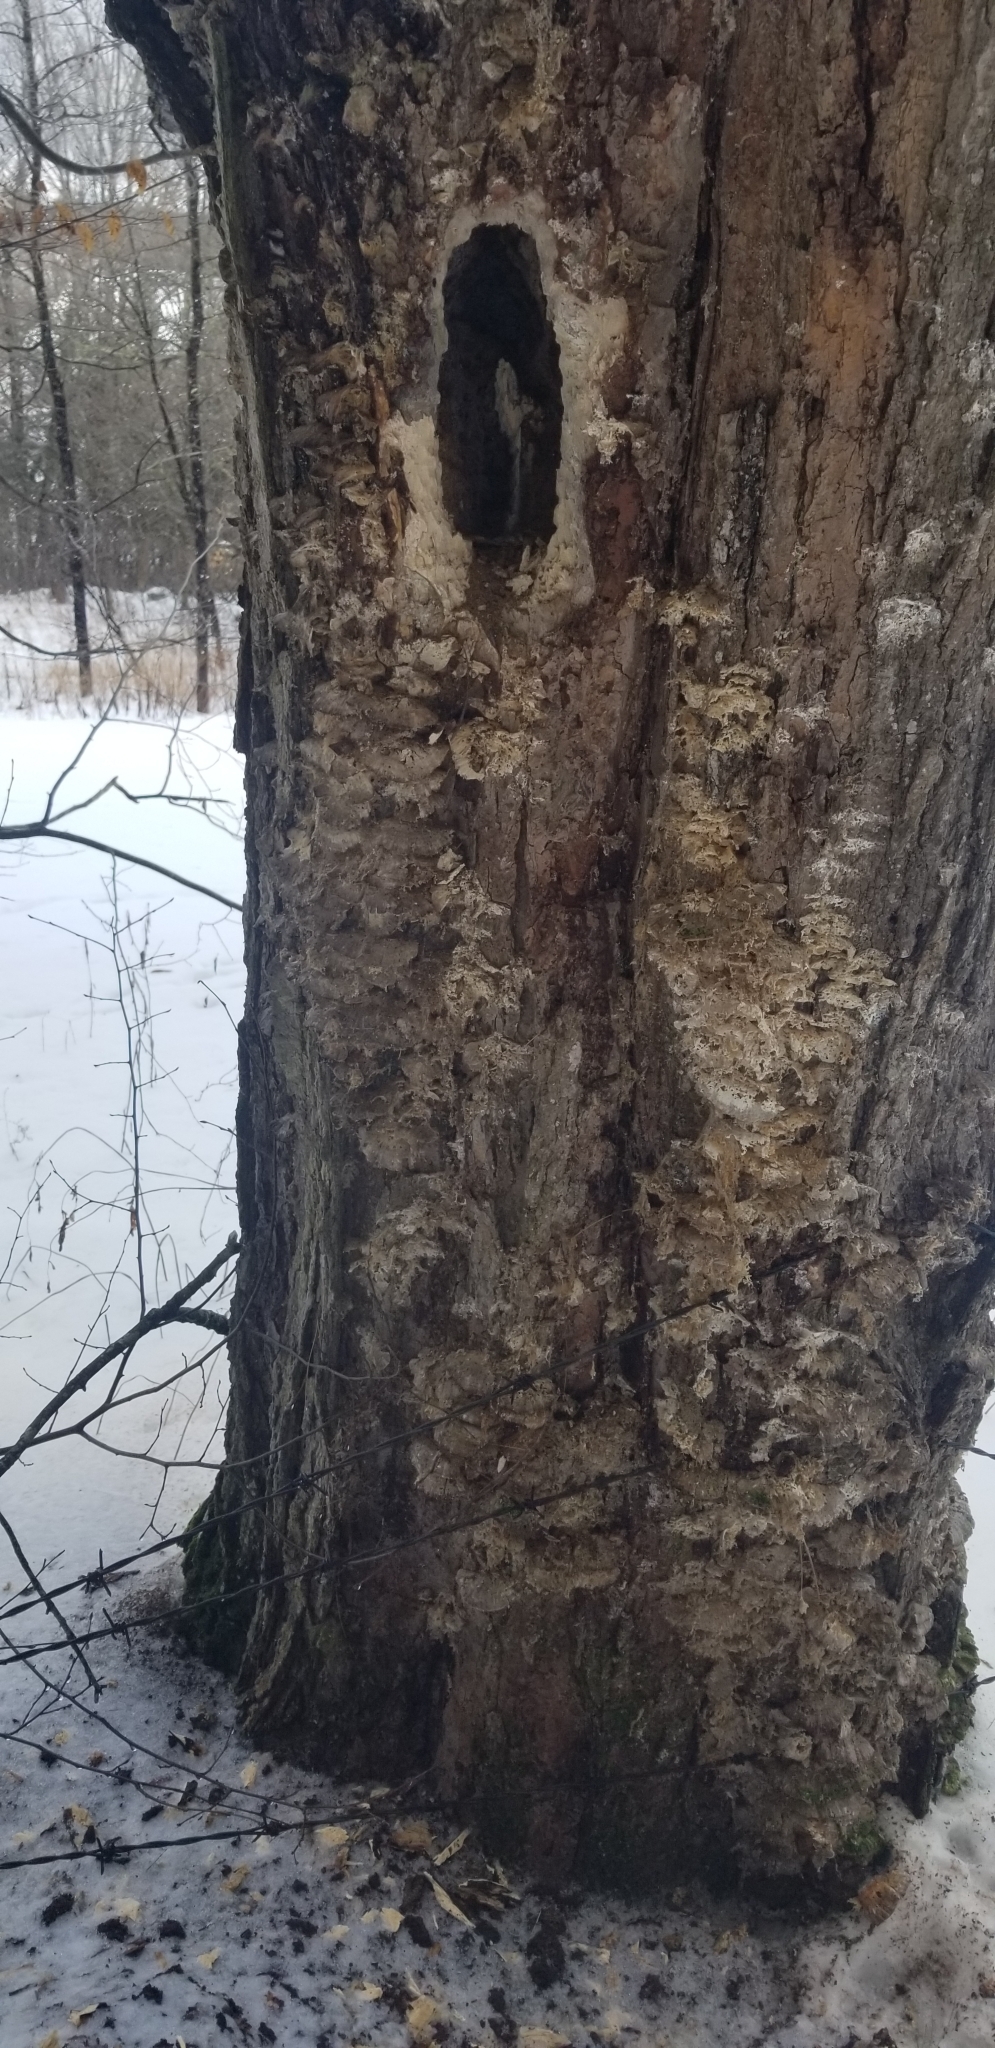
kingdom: Animalia
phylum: Chordata
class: Aves
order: Piciformes
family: Picidae
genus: Dryocopus
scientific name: Dryocopus pileatus
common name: Pileated woodpecker
